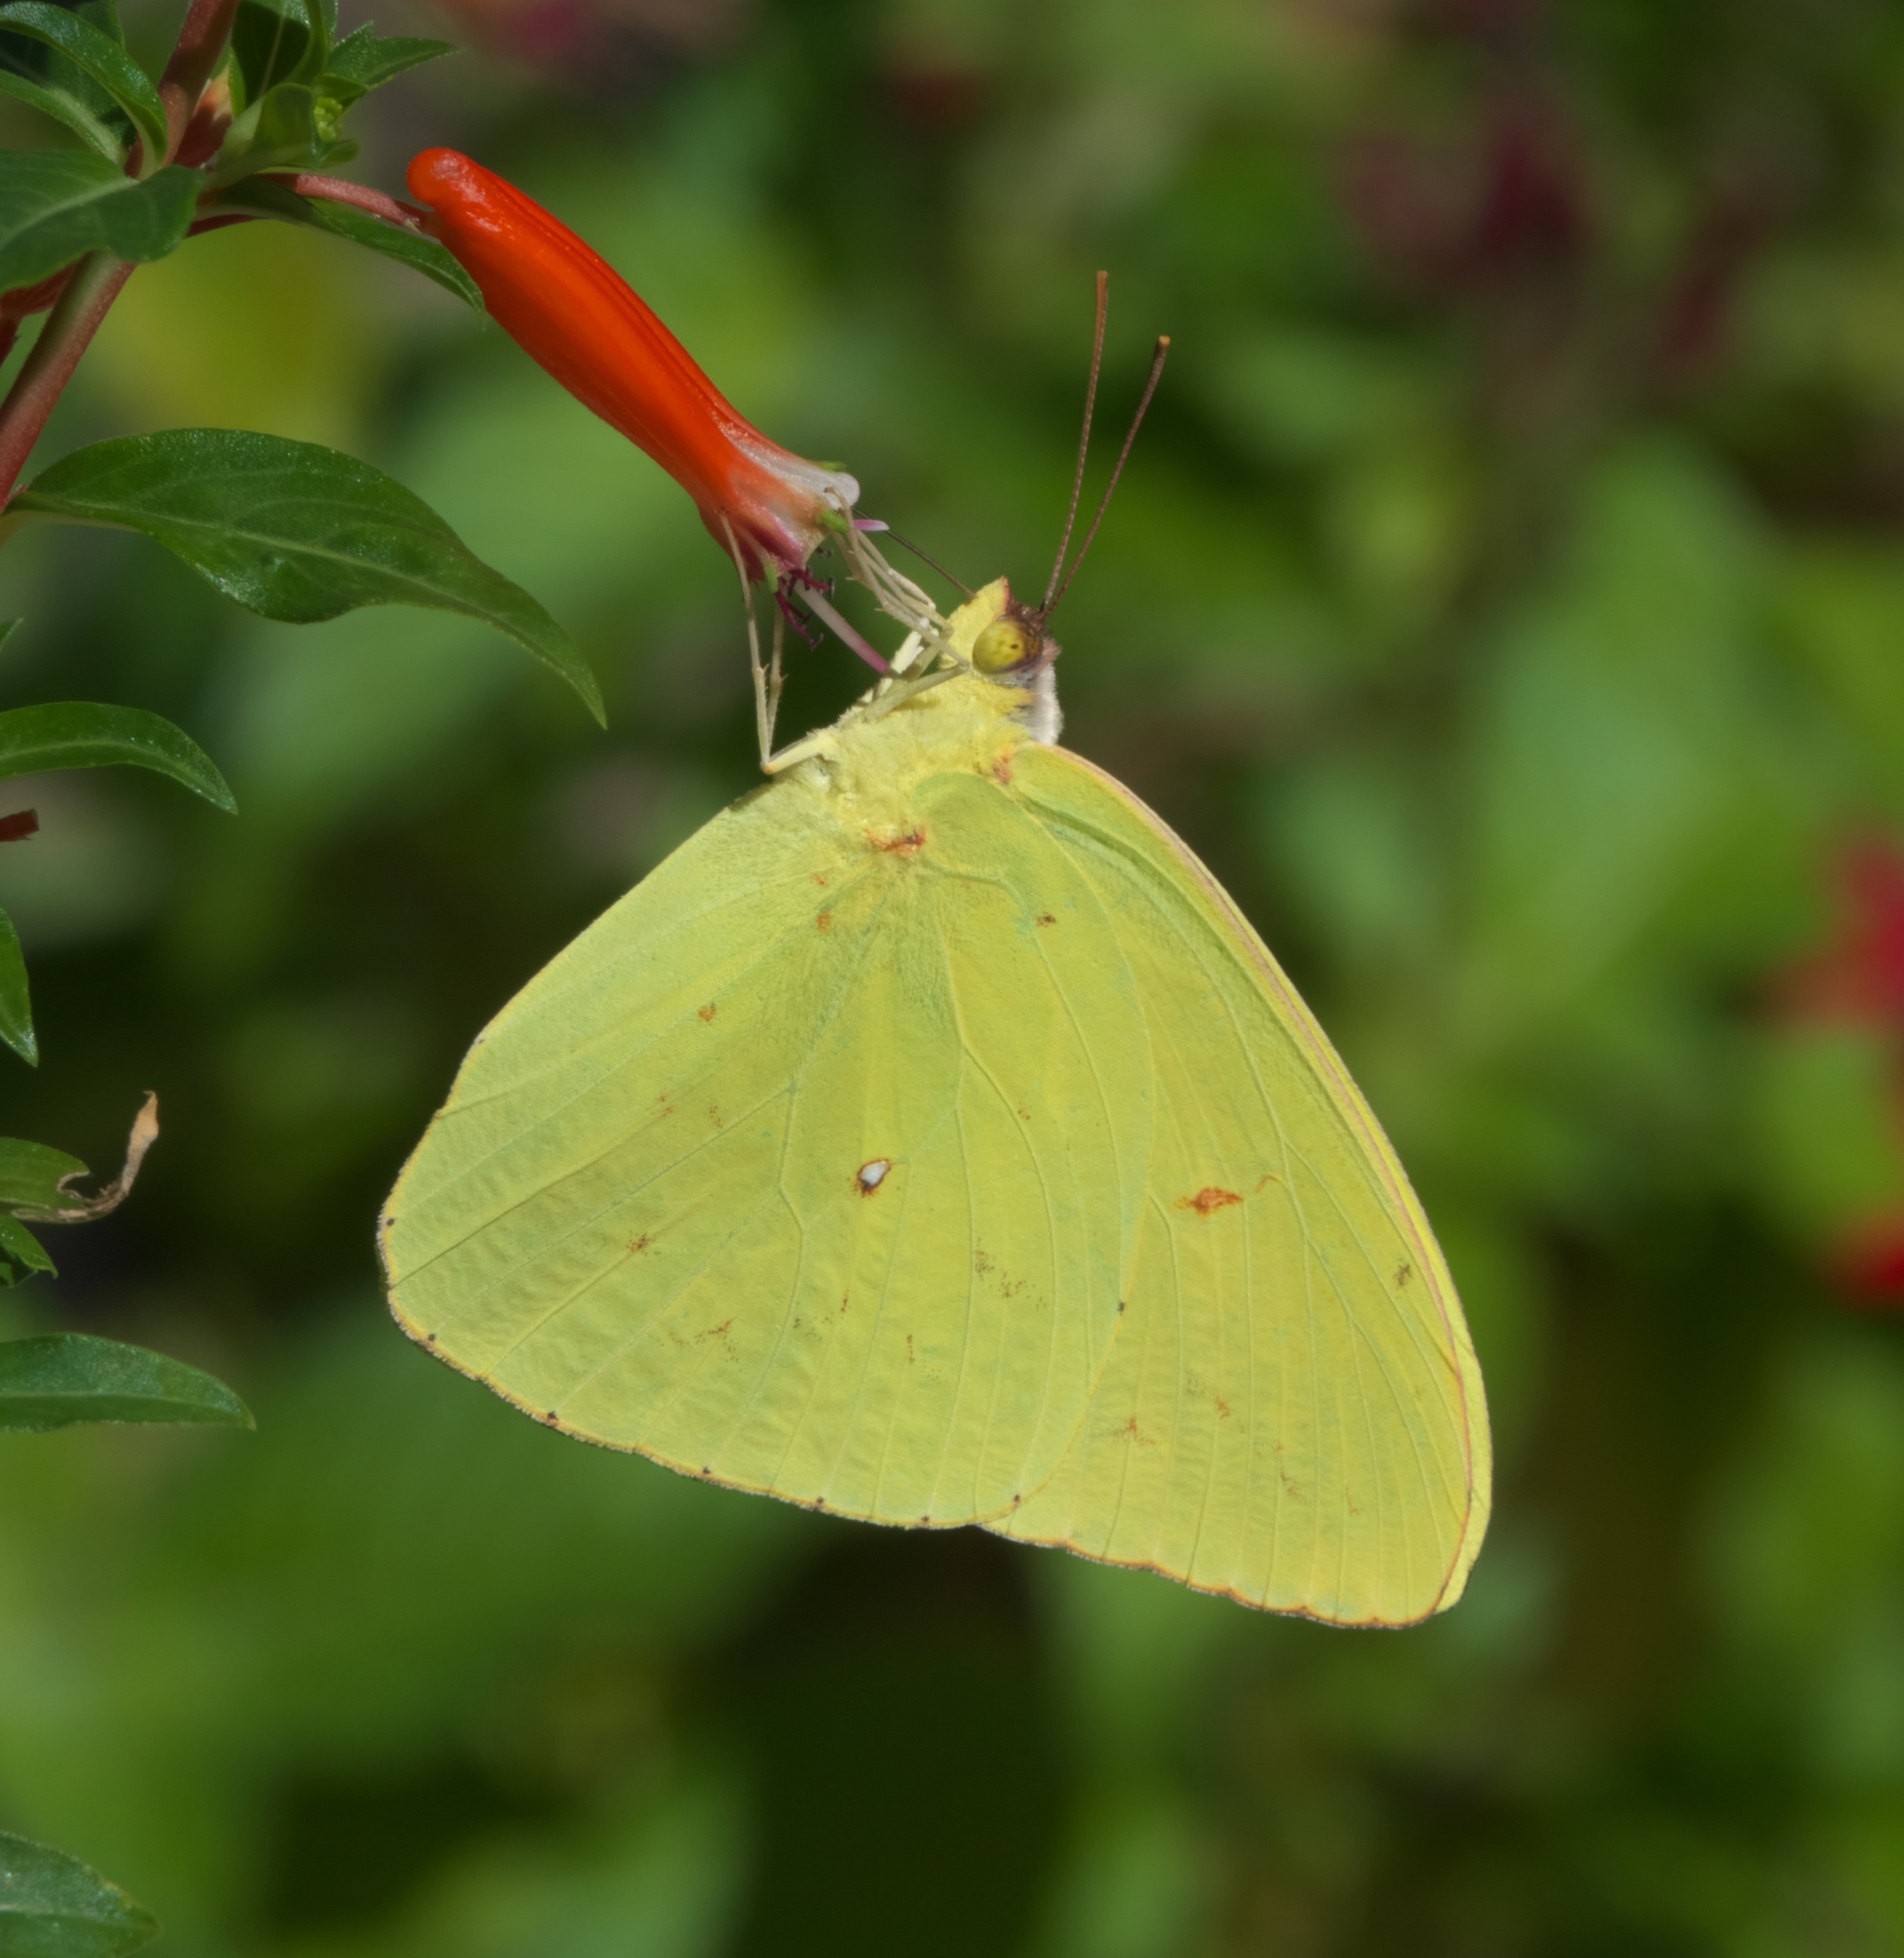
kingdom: Animalia
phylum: Arthropoda
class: Insecta
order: Lepidoptera
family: Pieridae
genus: Phoebis
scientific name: Phoebis sennae
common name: Cloudless sulphur
